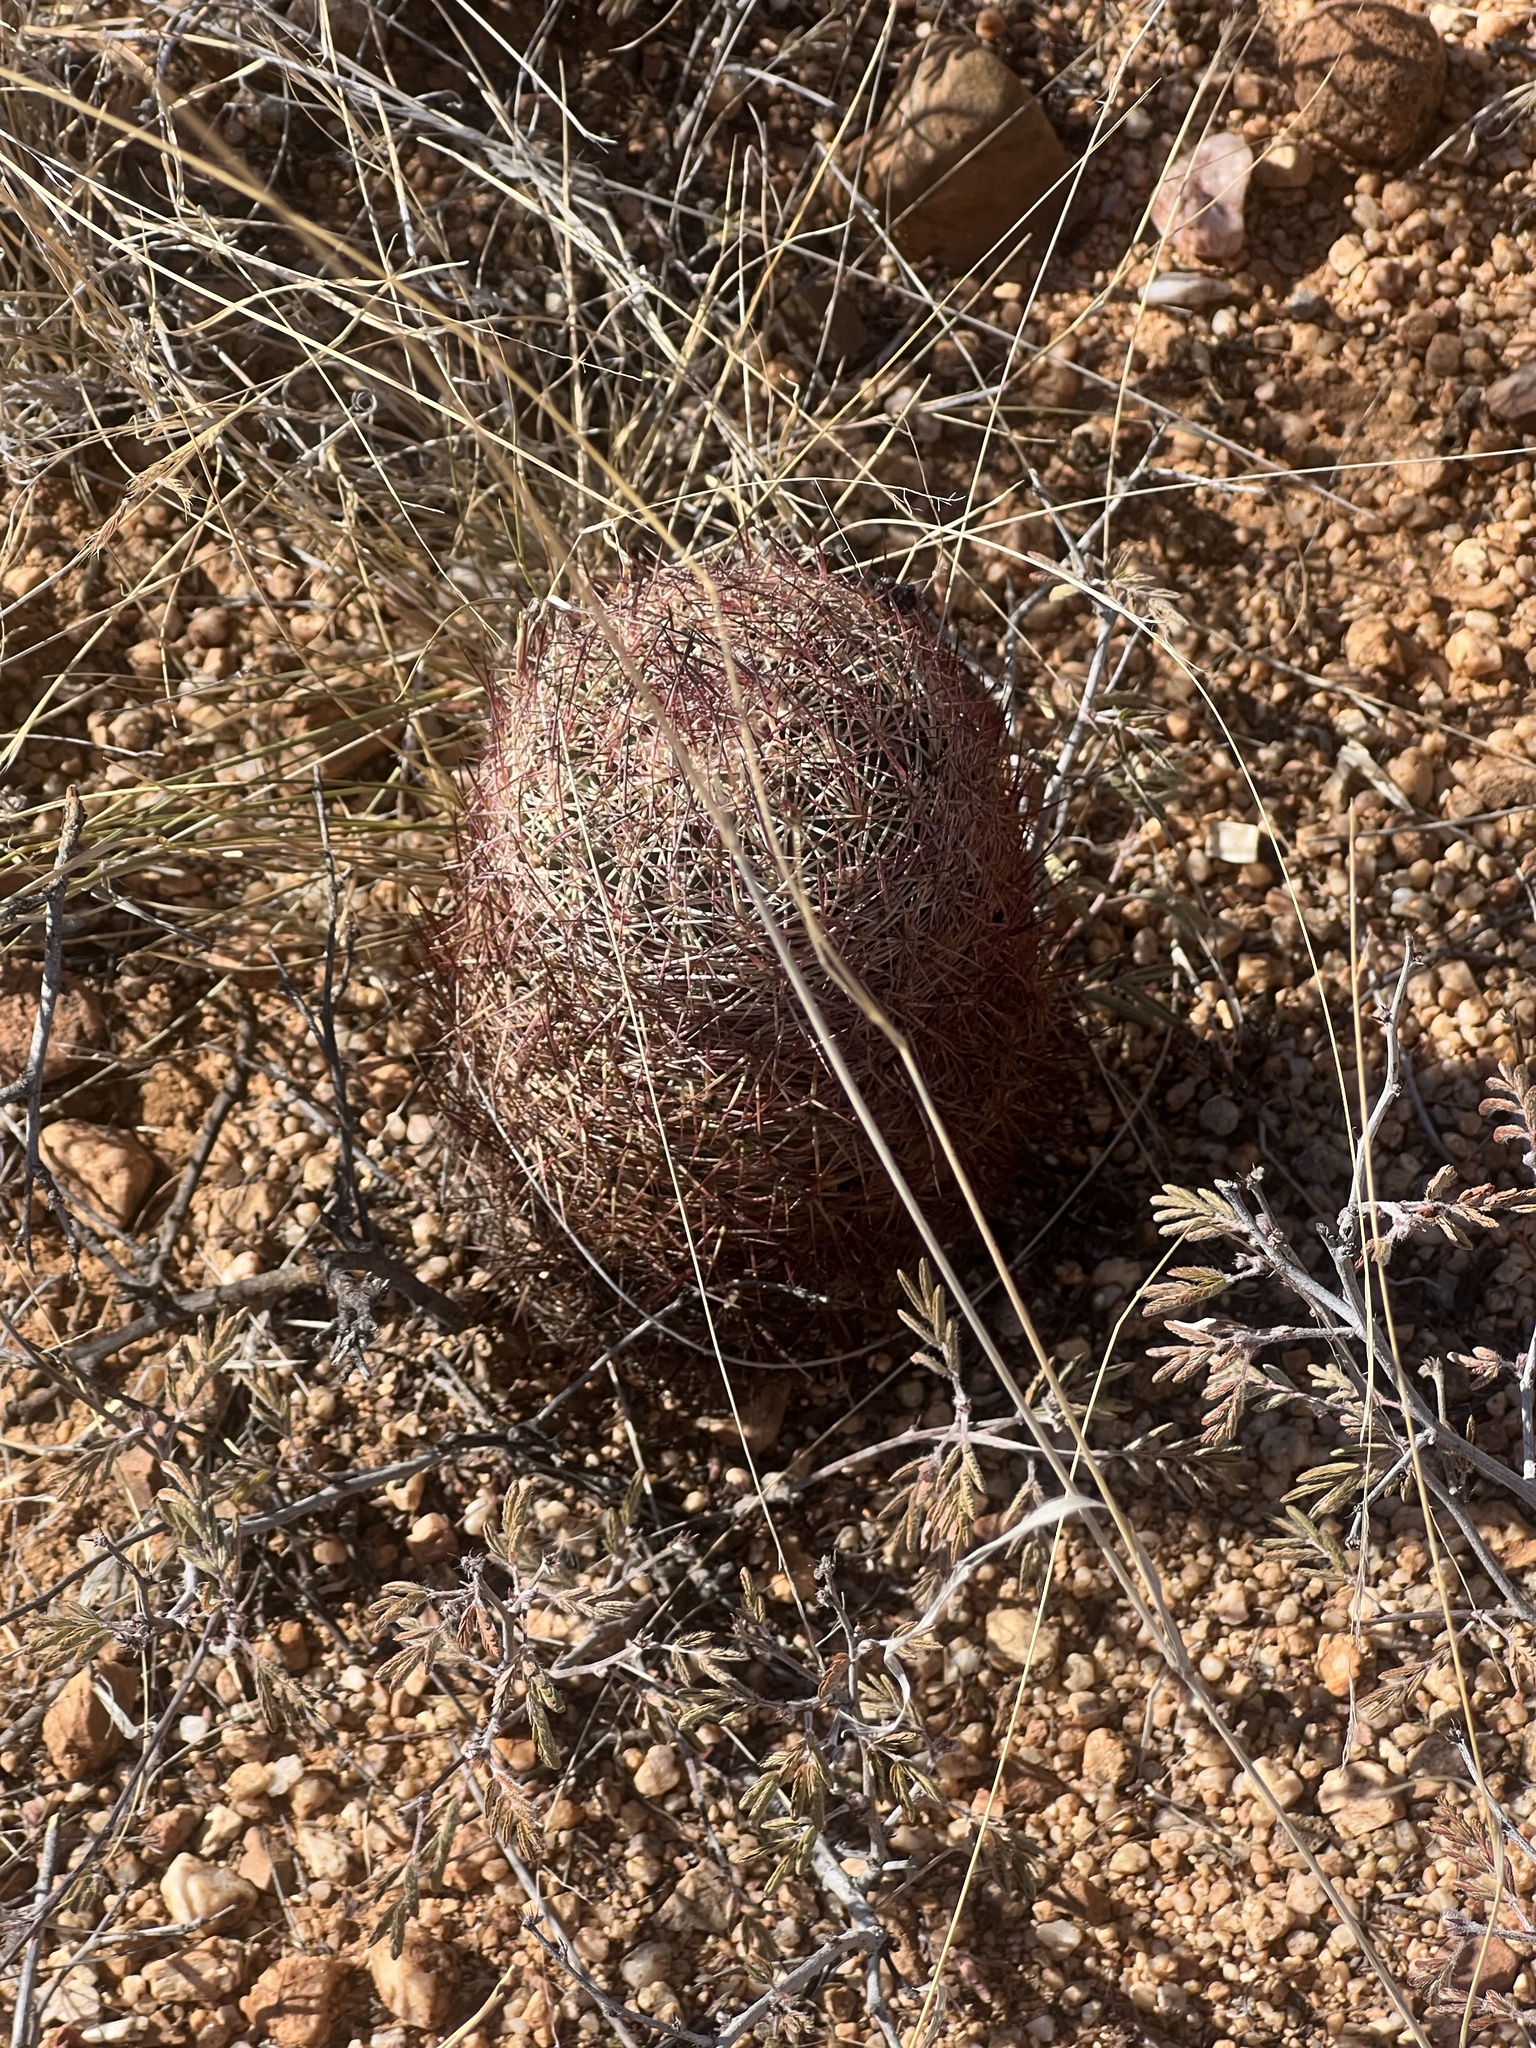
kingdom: Plantae
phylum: Tracheophyta
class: Magnoliopsida
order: Caryophyllales
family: Cactaceae
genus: Sclerocactus
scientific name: Sclerocactus johnsonii
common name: Eight-spine fishhook cactus
